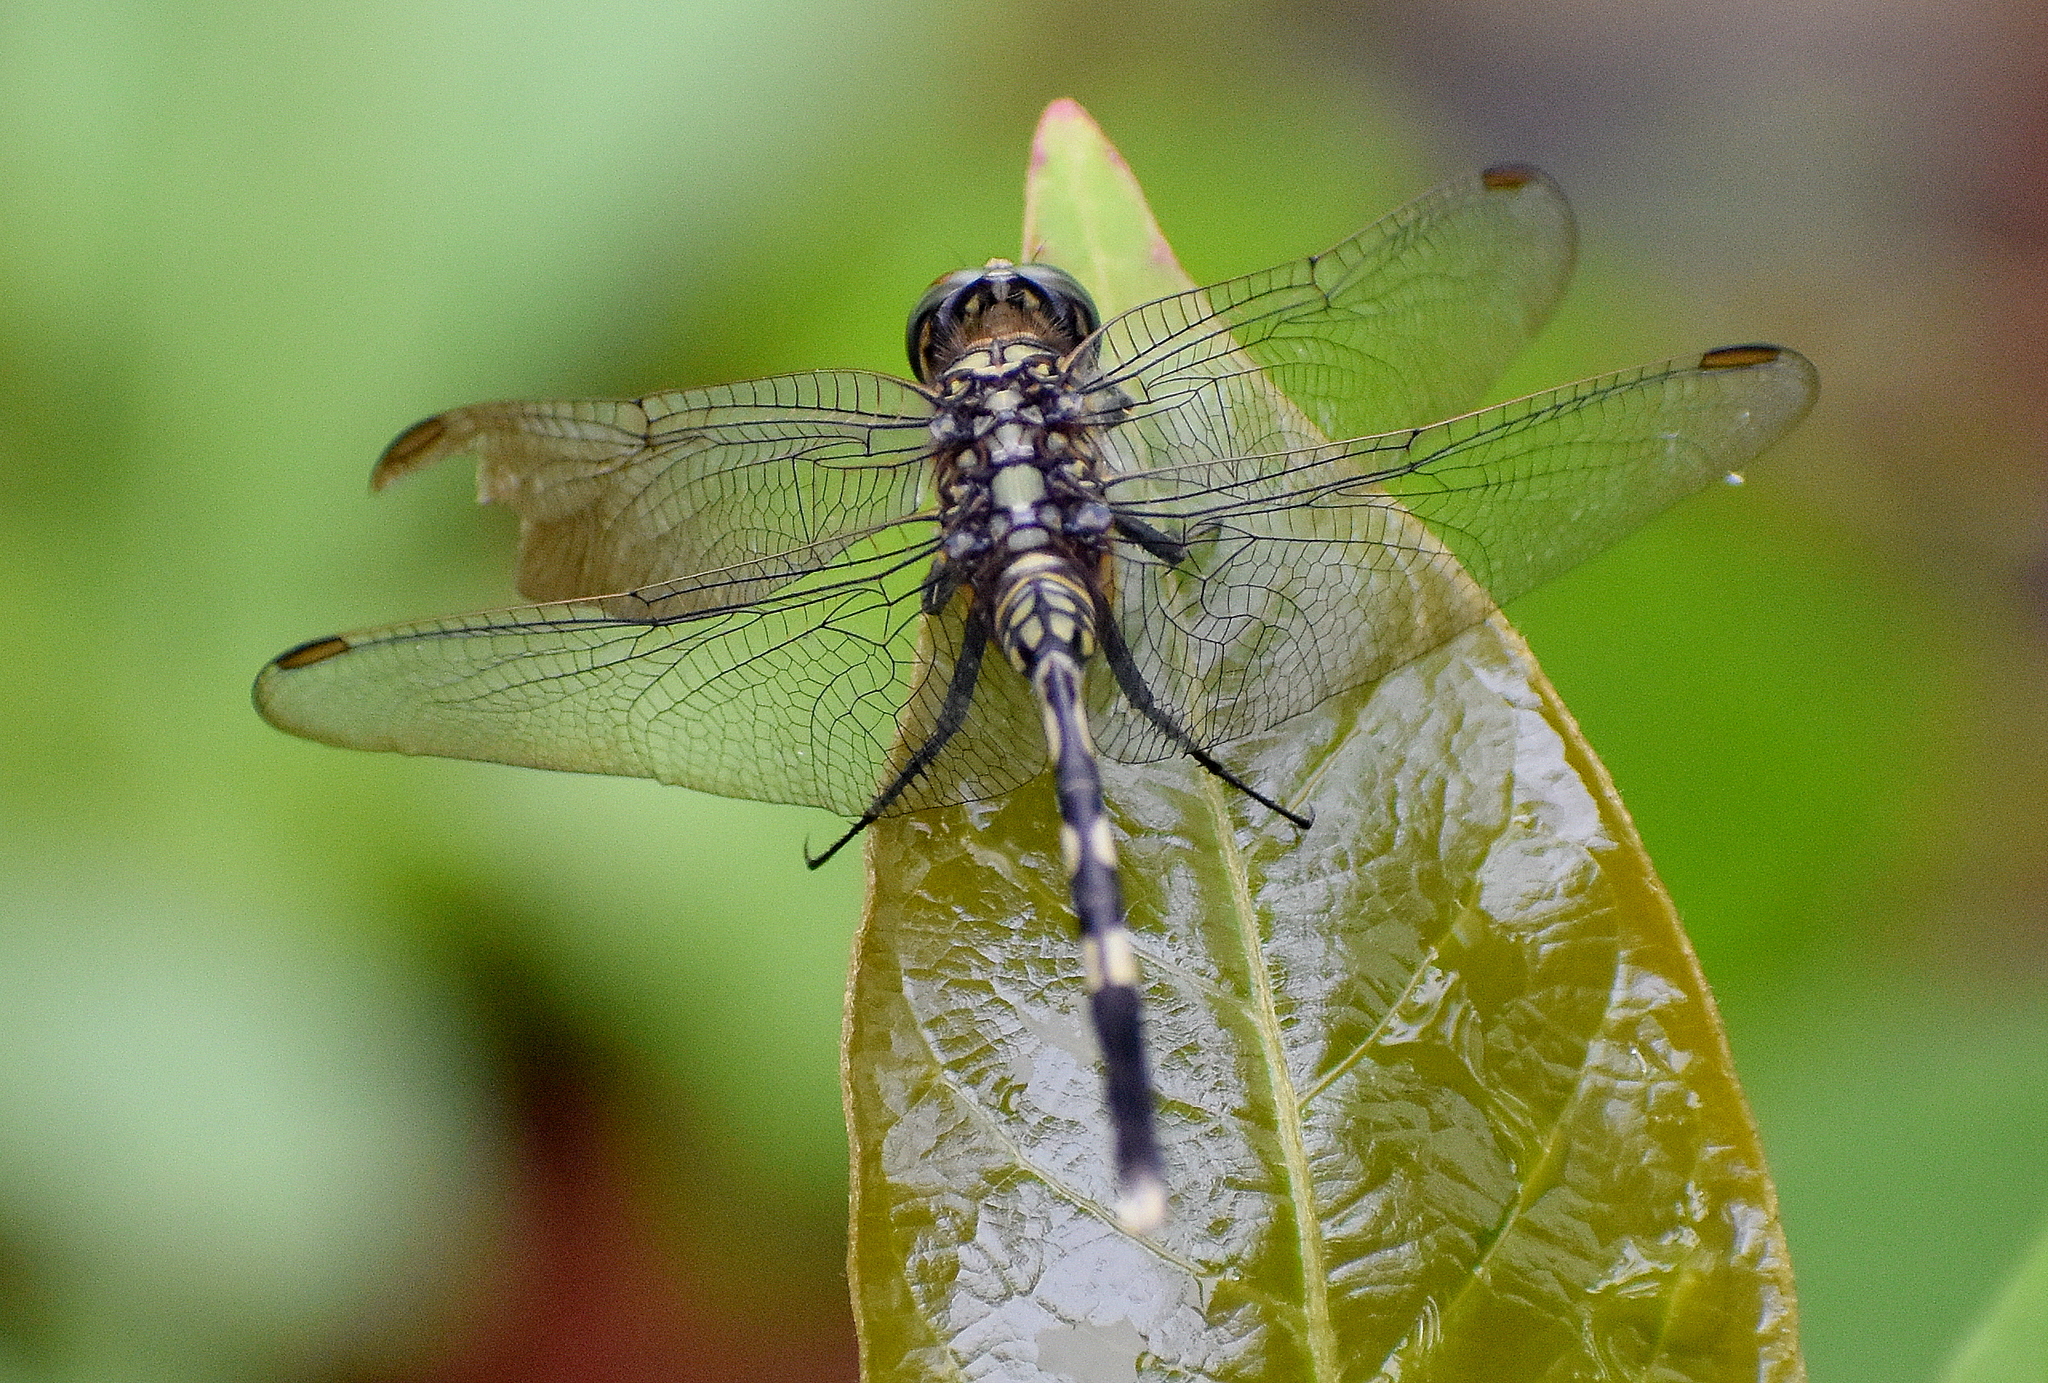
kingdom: Animalia
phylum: Arthropoda
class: Insecta
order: Odonata
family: Libellulidae
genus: Orthetrum
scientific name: Orthetrum sabina
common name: Slender skimmer
